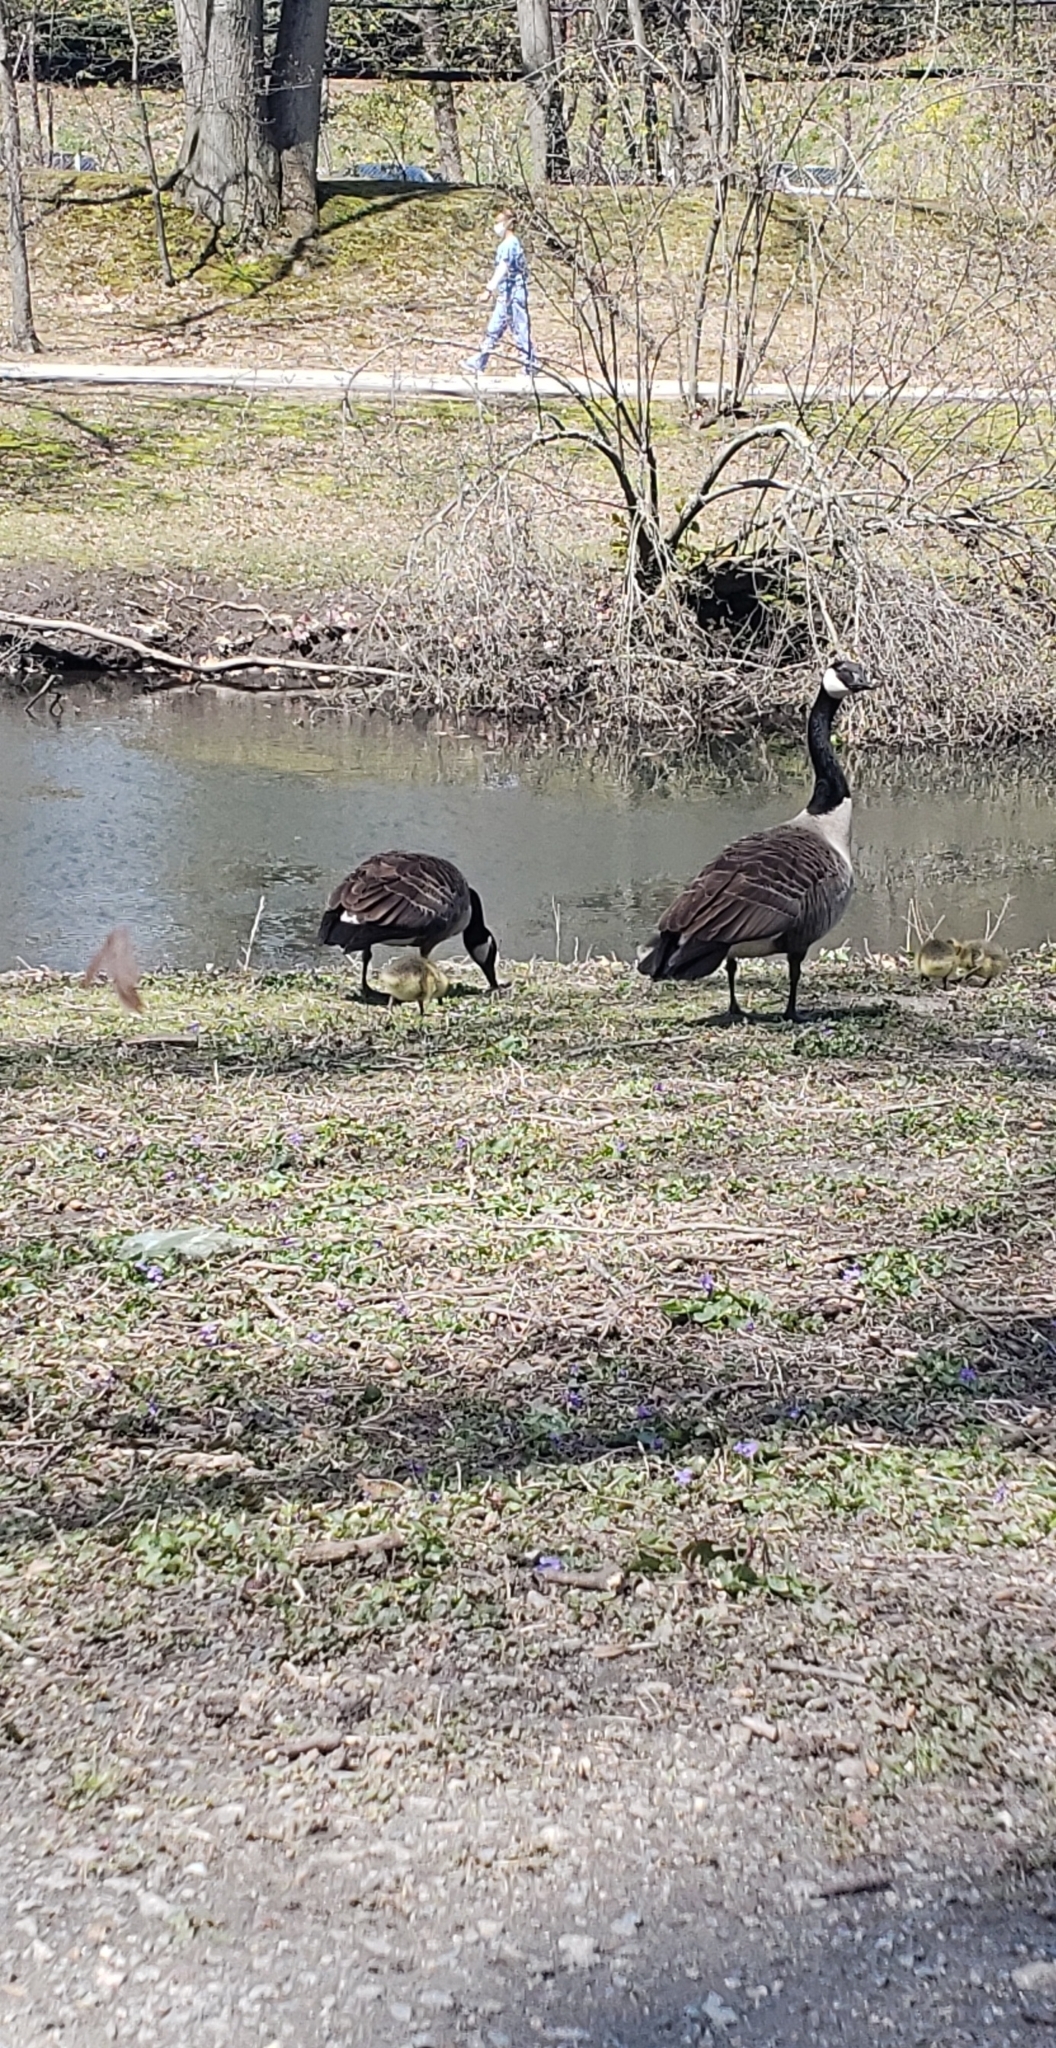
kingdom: Animalia
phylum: Chordata
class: Aves
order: Anseriformes
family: Anatidae
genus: Branta
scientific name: Branta canadensis
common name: Canada goose
